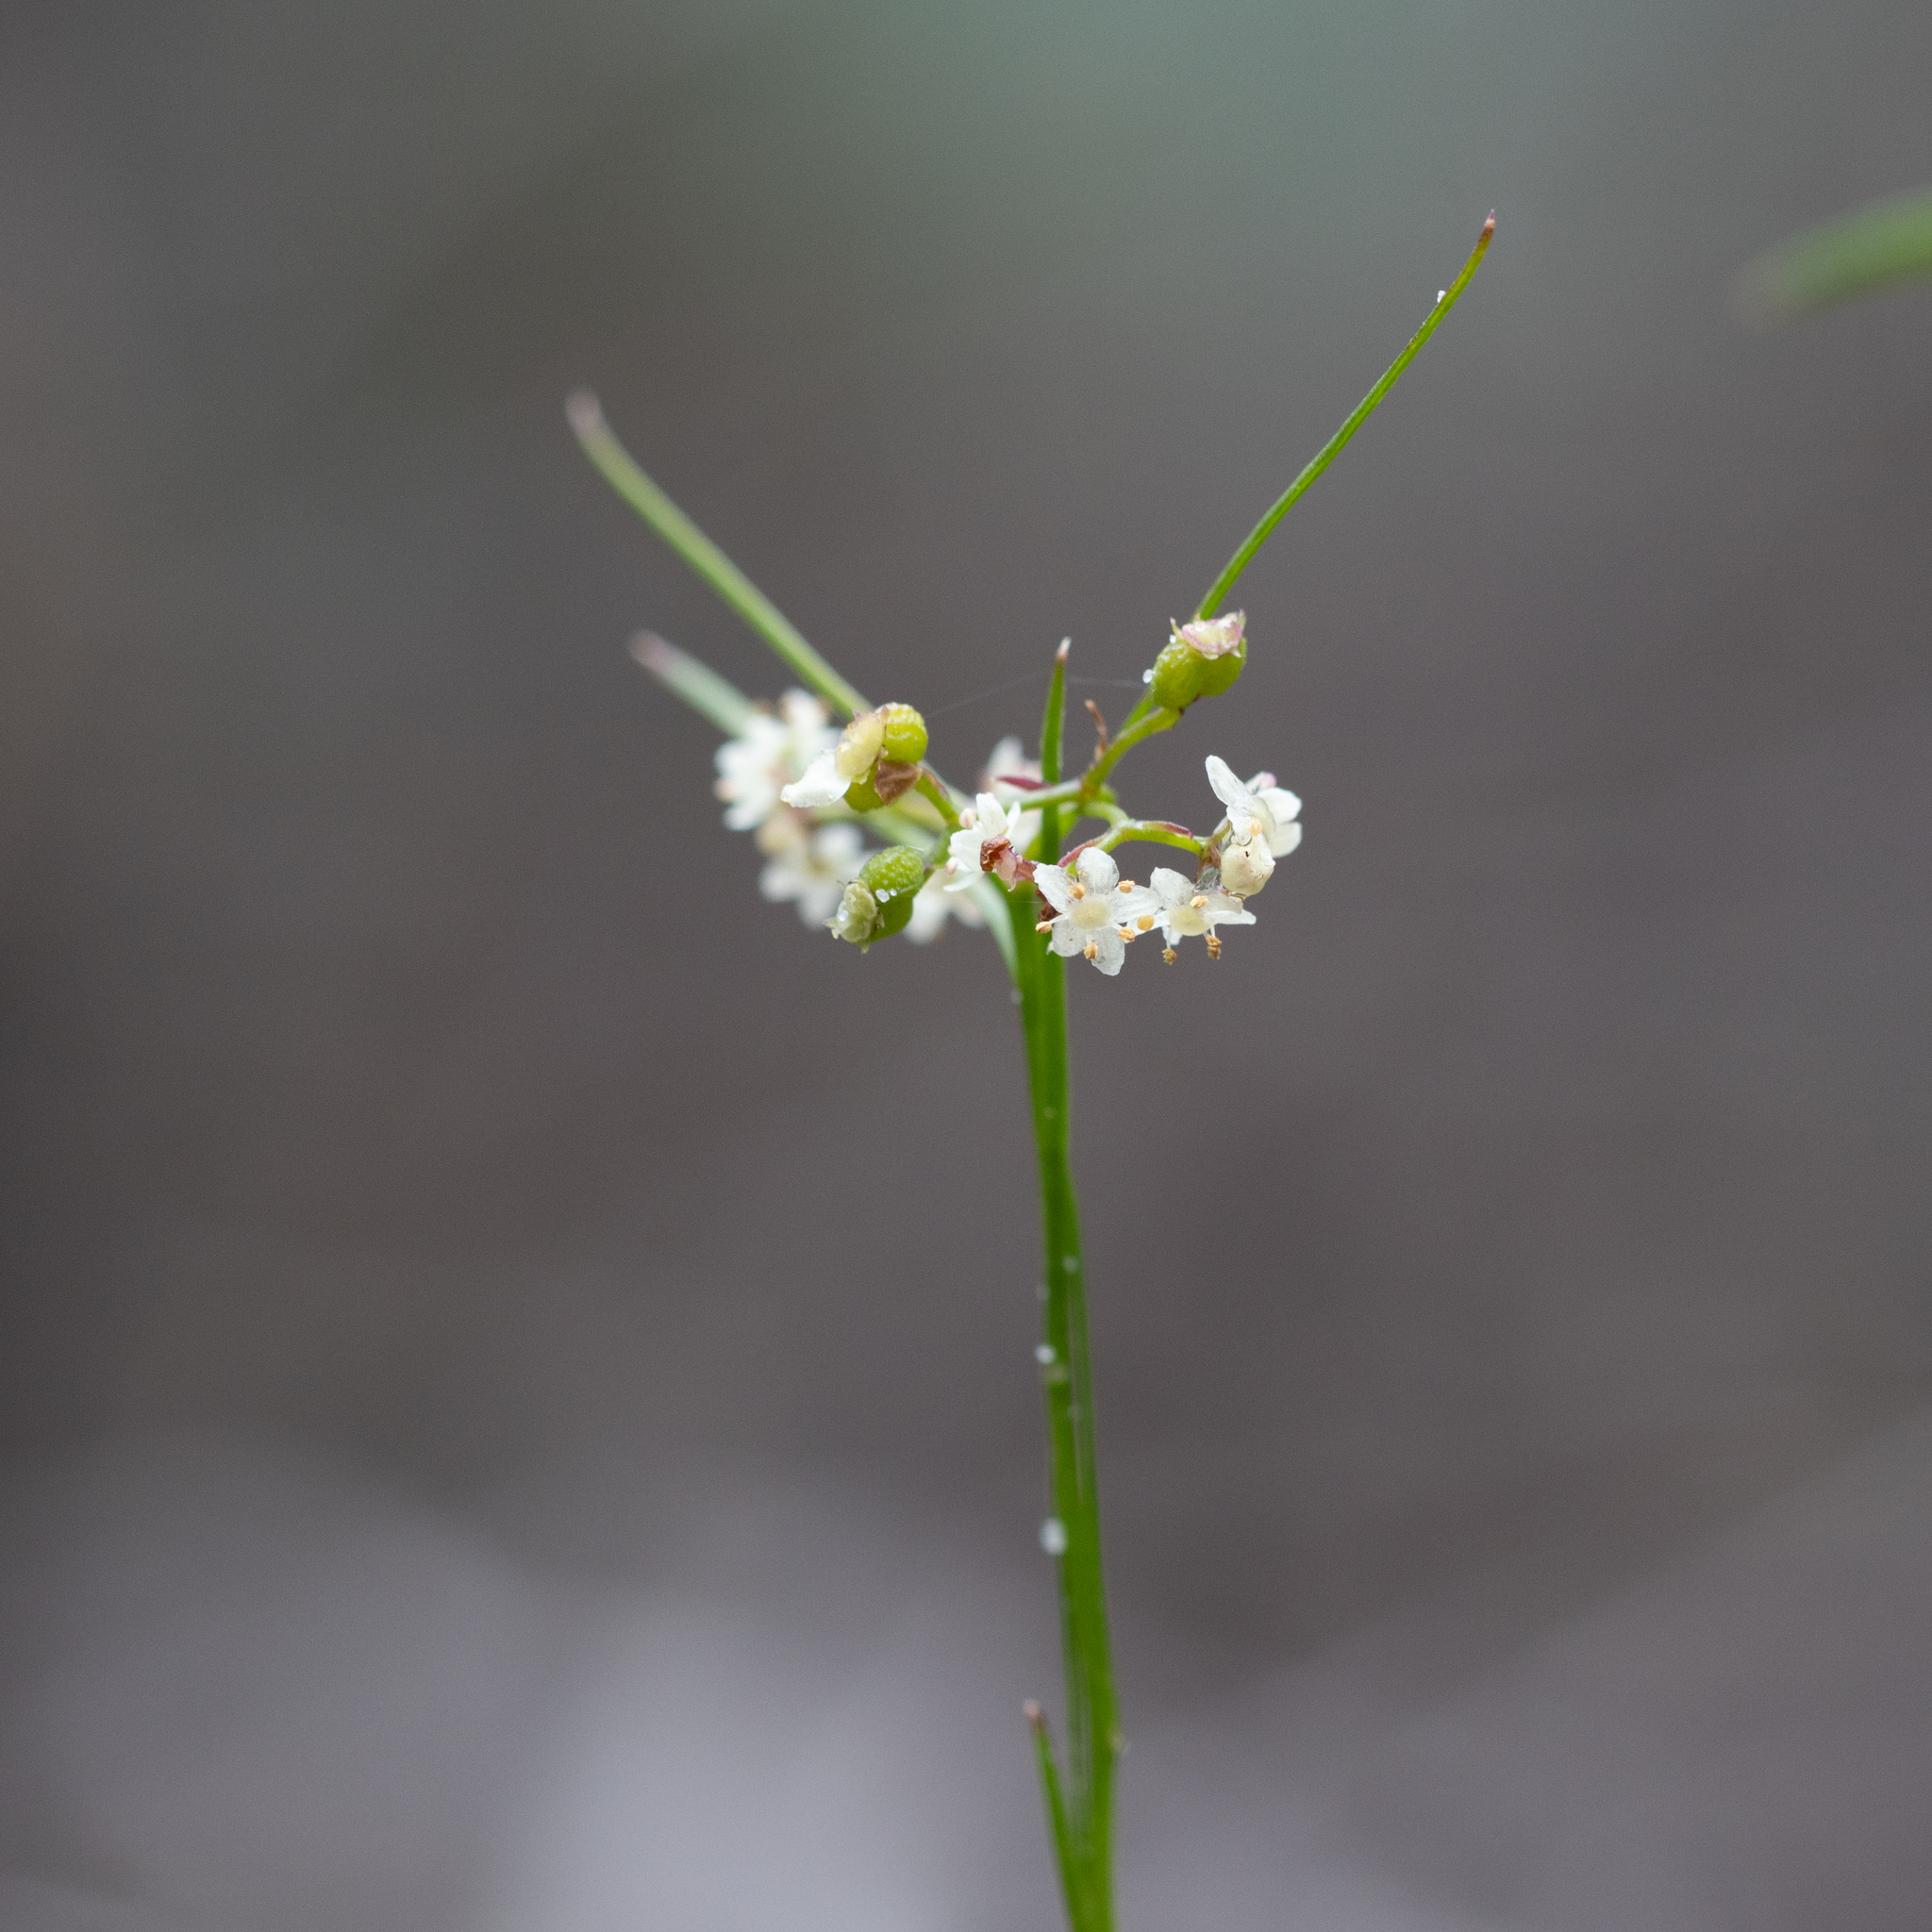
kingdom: Plantae
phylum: Tracheophyta
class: Magnoliopsida
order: Apiales
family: Apiaceae
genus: Platysace
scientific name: Platysace heterophylla
